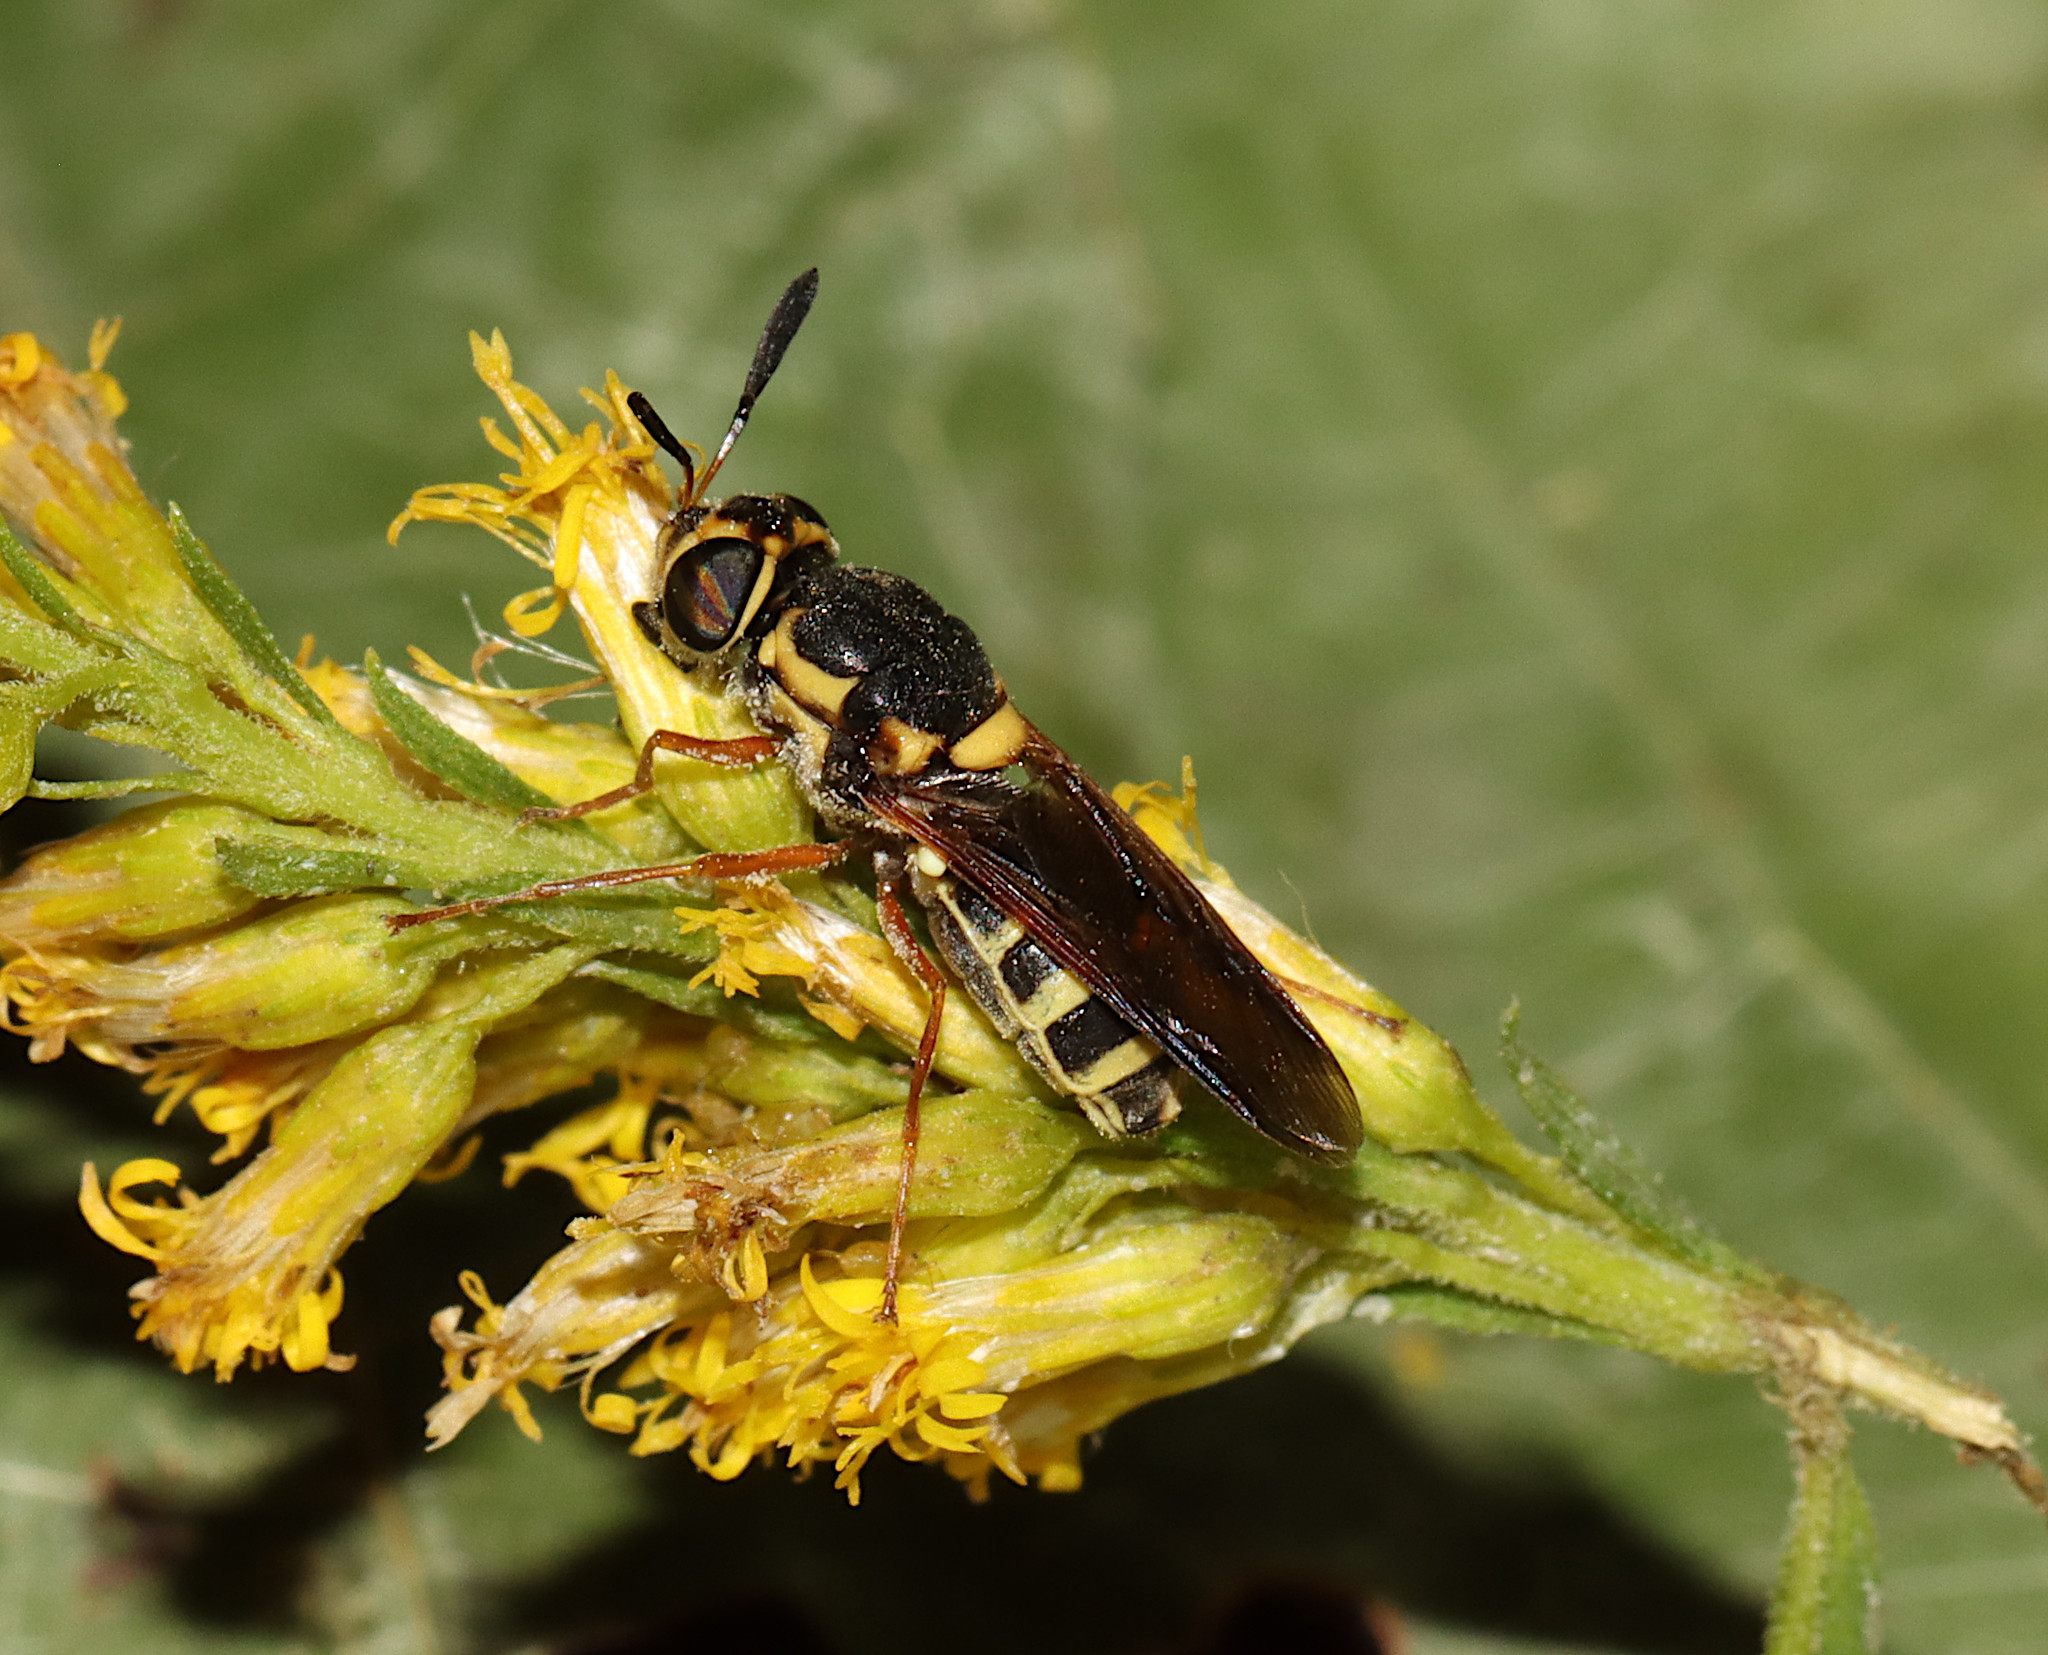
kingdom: Animalia
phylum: Arthropoda
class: Insecta
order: Diptera
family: Stratiomyidae
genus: Hoplitimyia
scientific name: Hoplitimyia constans
